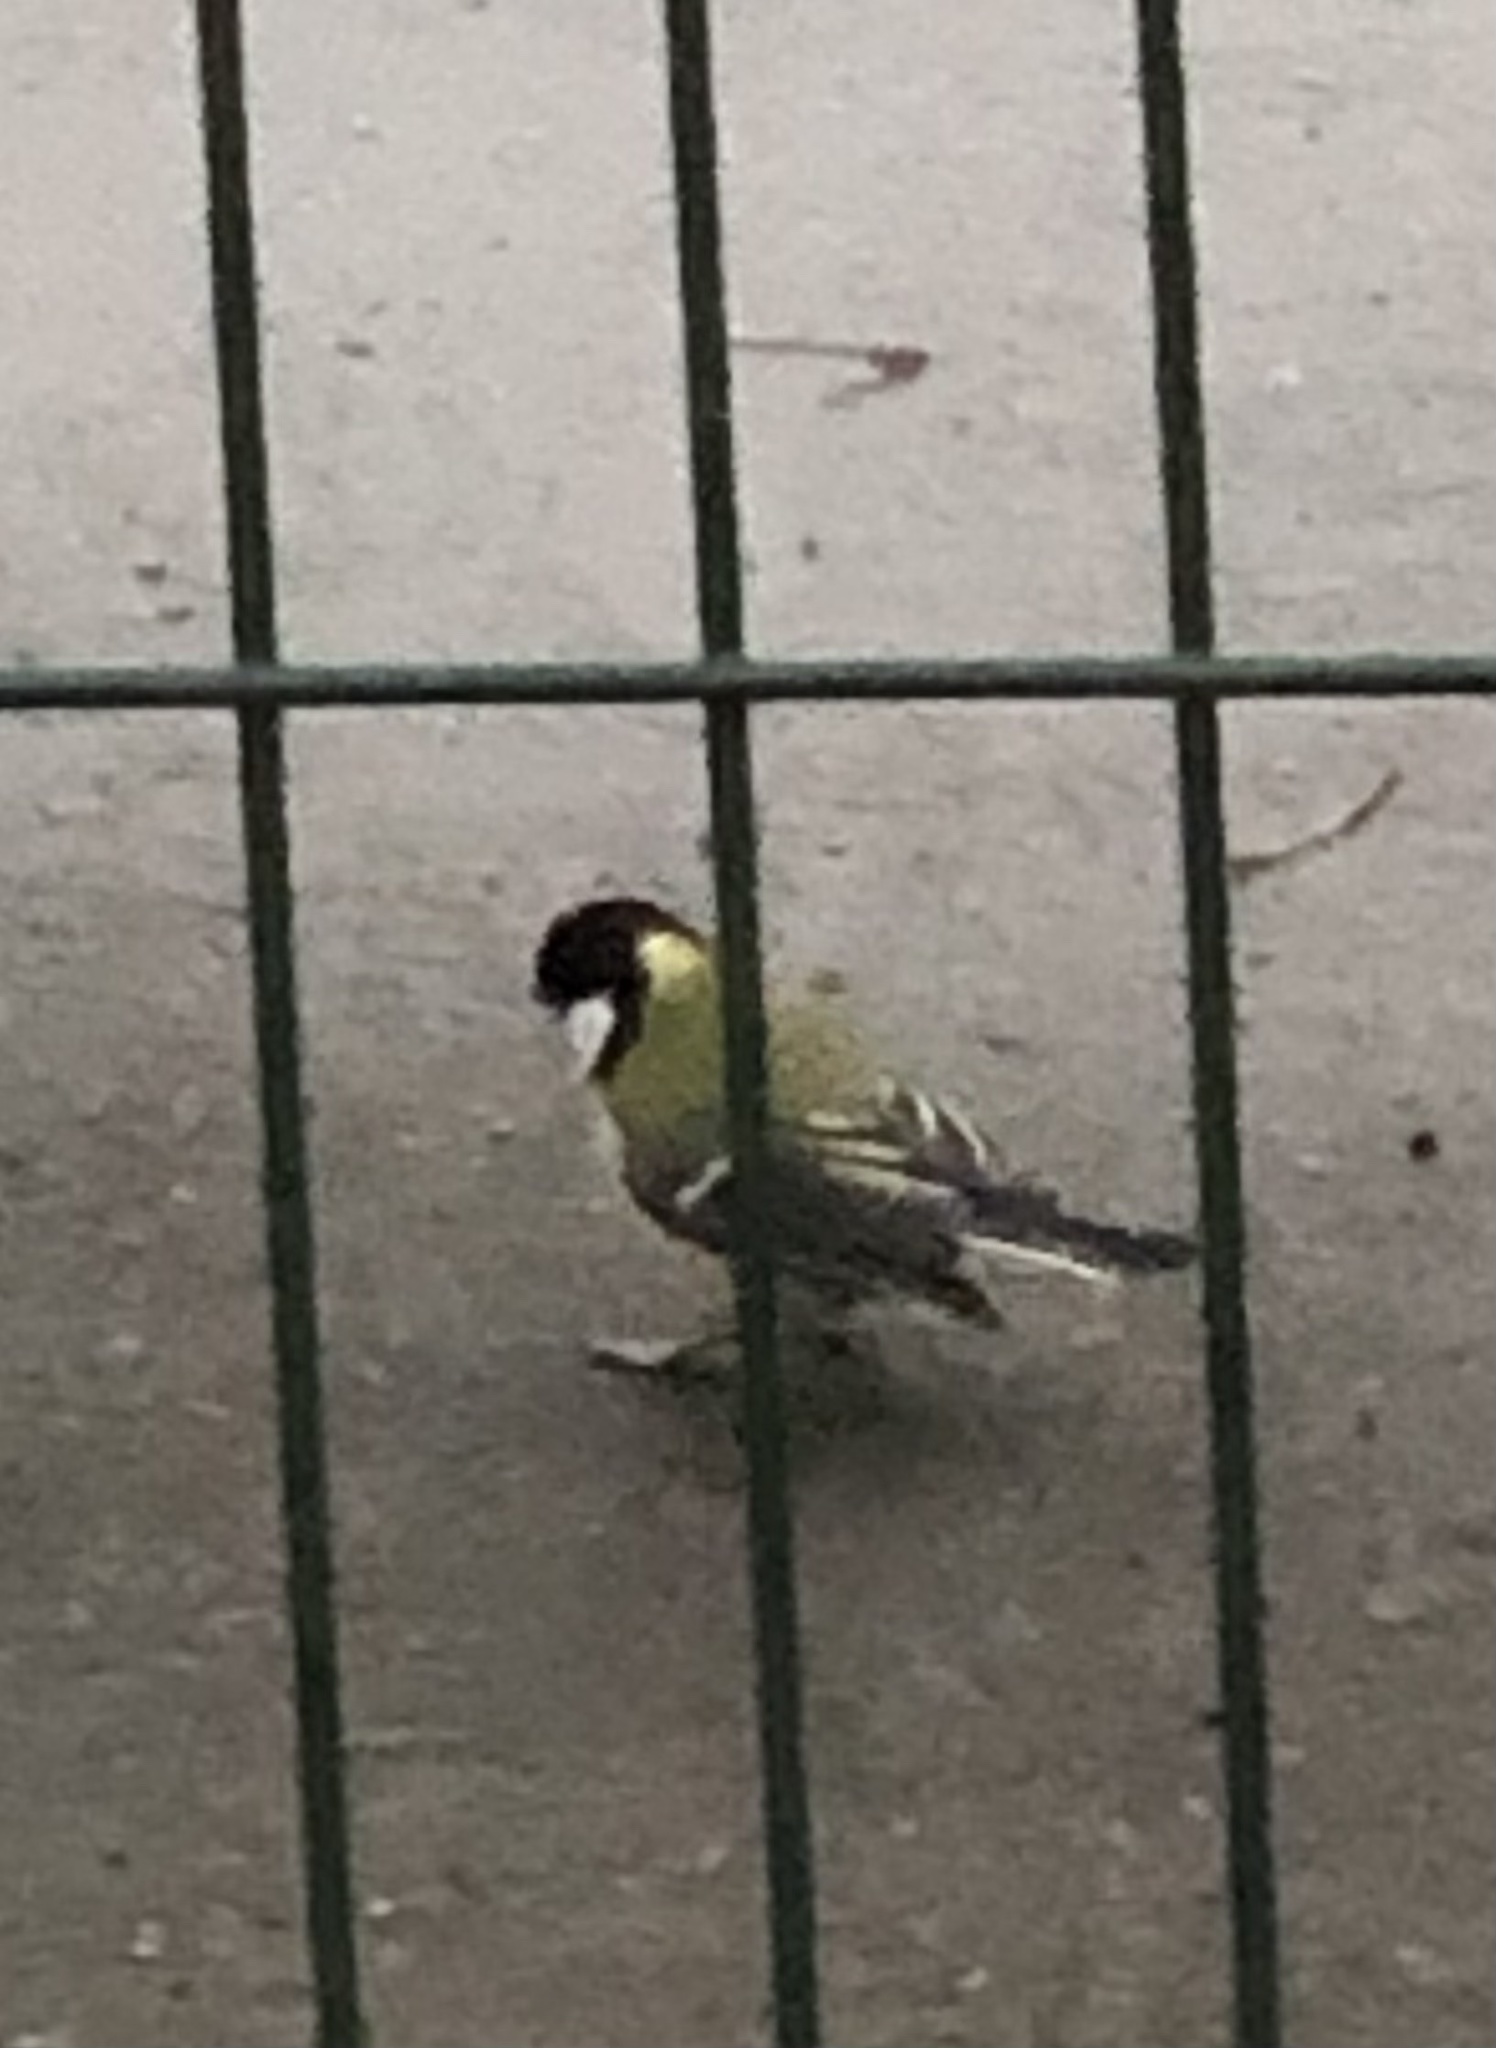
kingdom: Animalia
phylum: Chordata
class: Aves
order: Passeriformes
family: Paridae
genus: Parus
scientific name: Parus major
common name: Great tit
